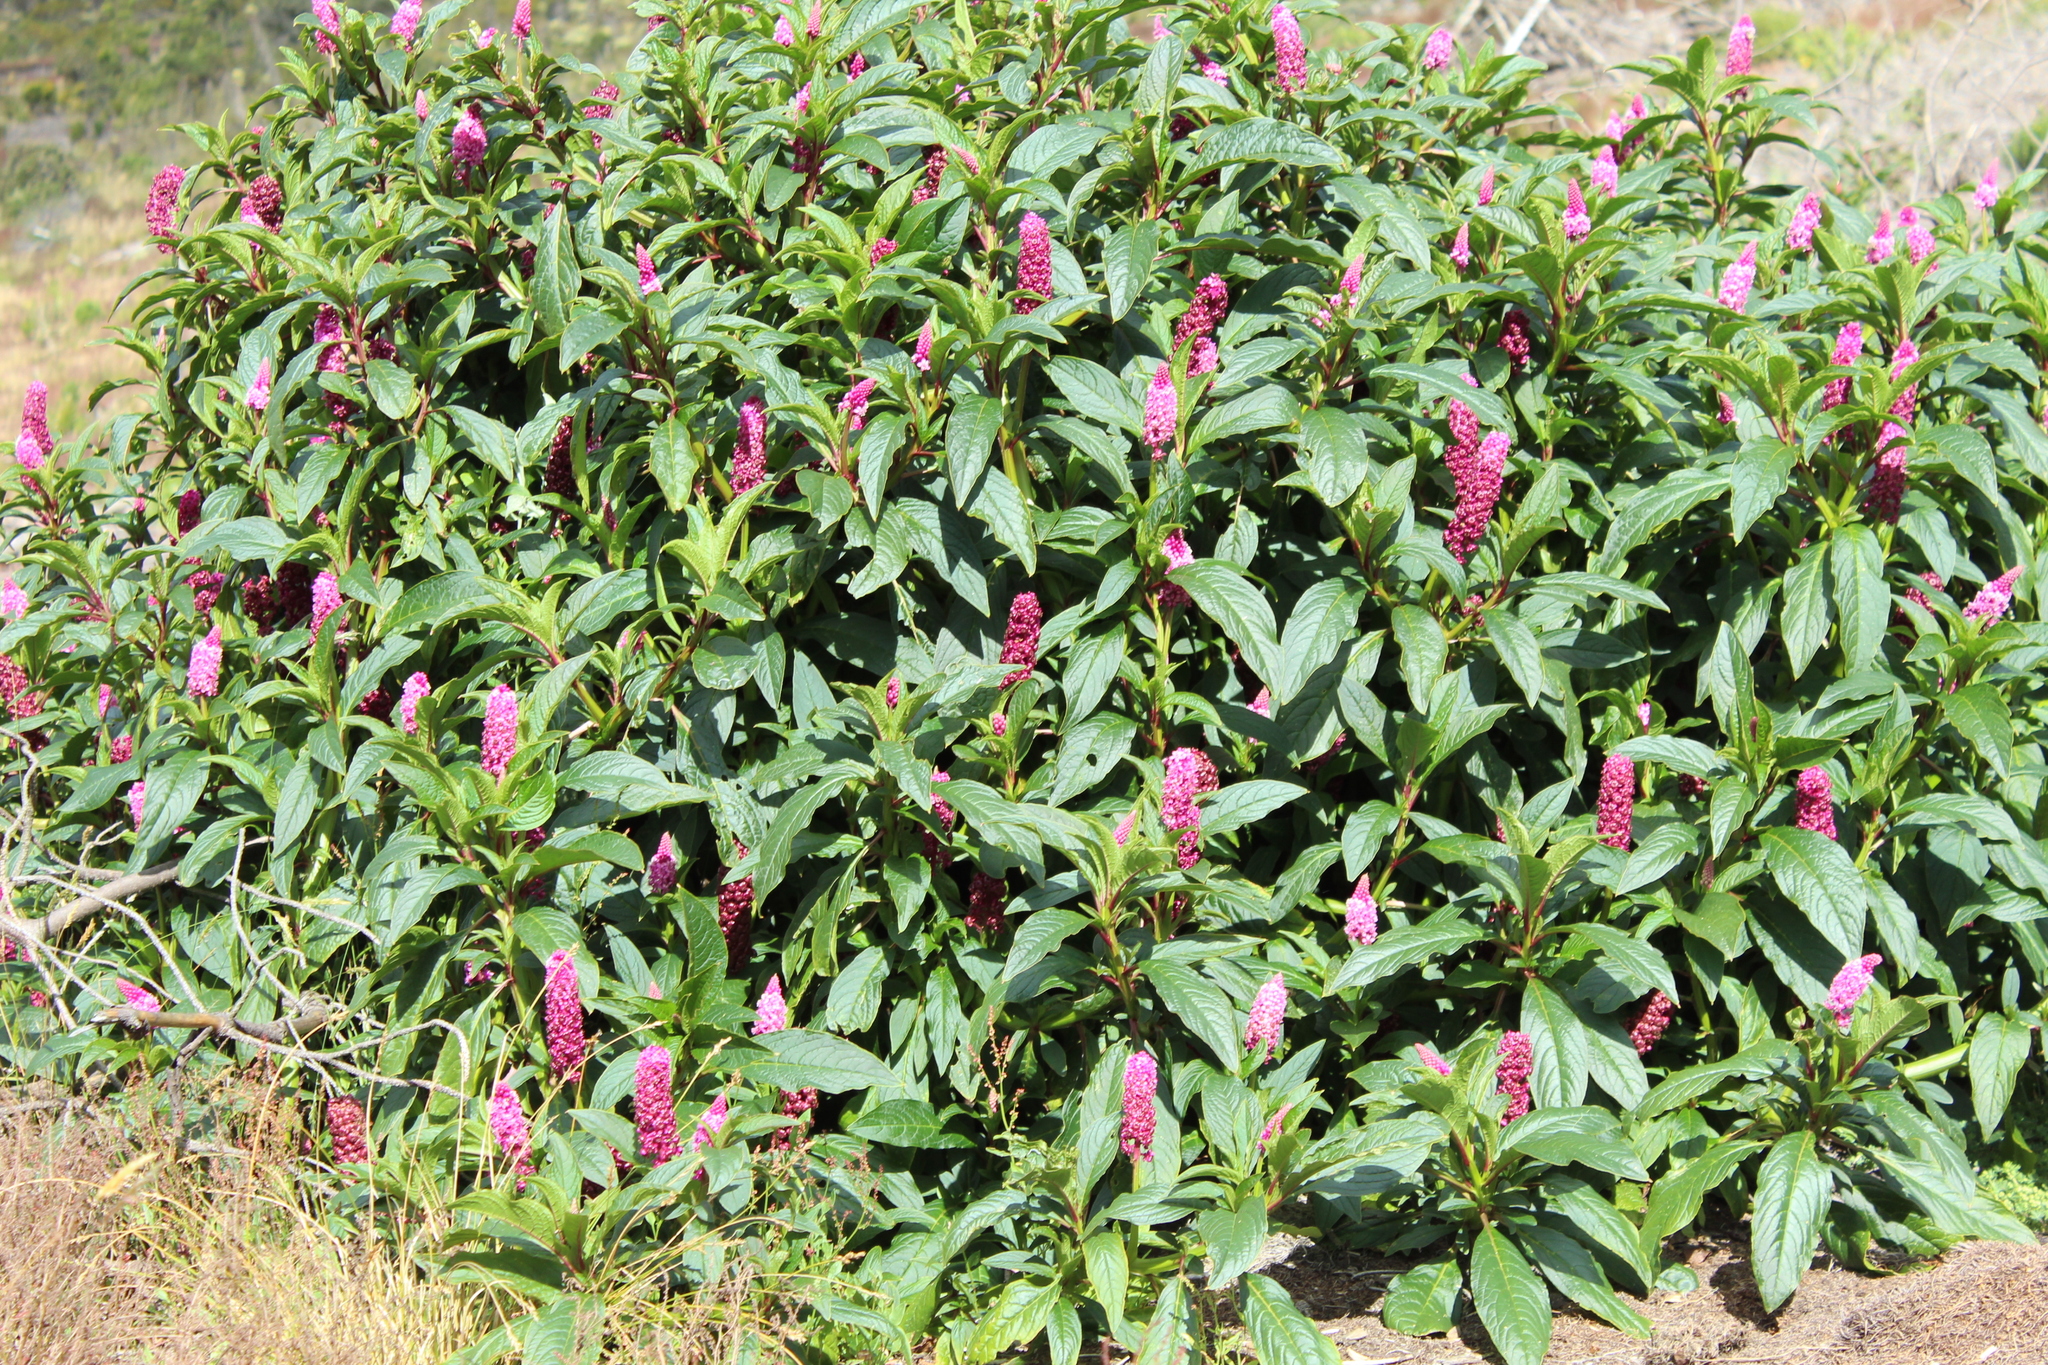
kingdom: Plantae
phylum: Tracheophyta
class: Magnoliopsida
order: Caryophyllales
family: Phytolaccaceae
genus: Phytolacca
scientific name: Phytolacca bogotensis
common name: Southern pokeweed
